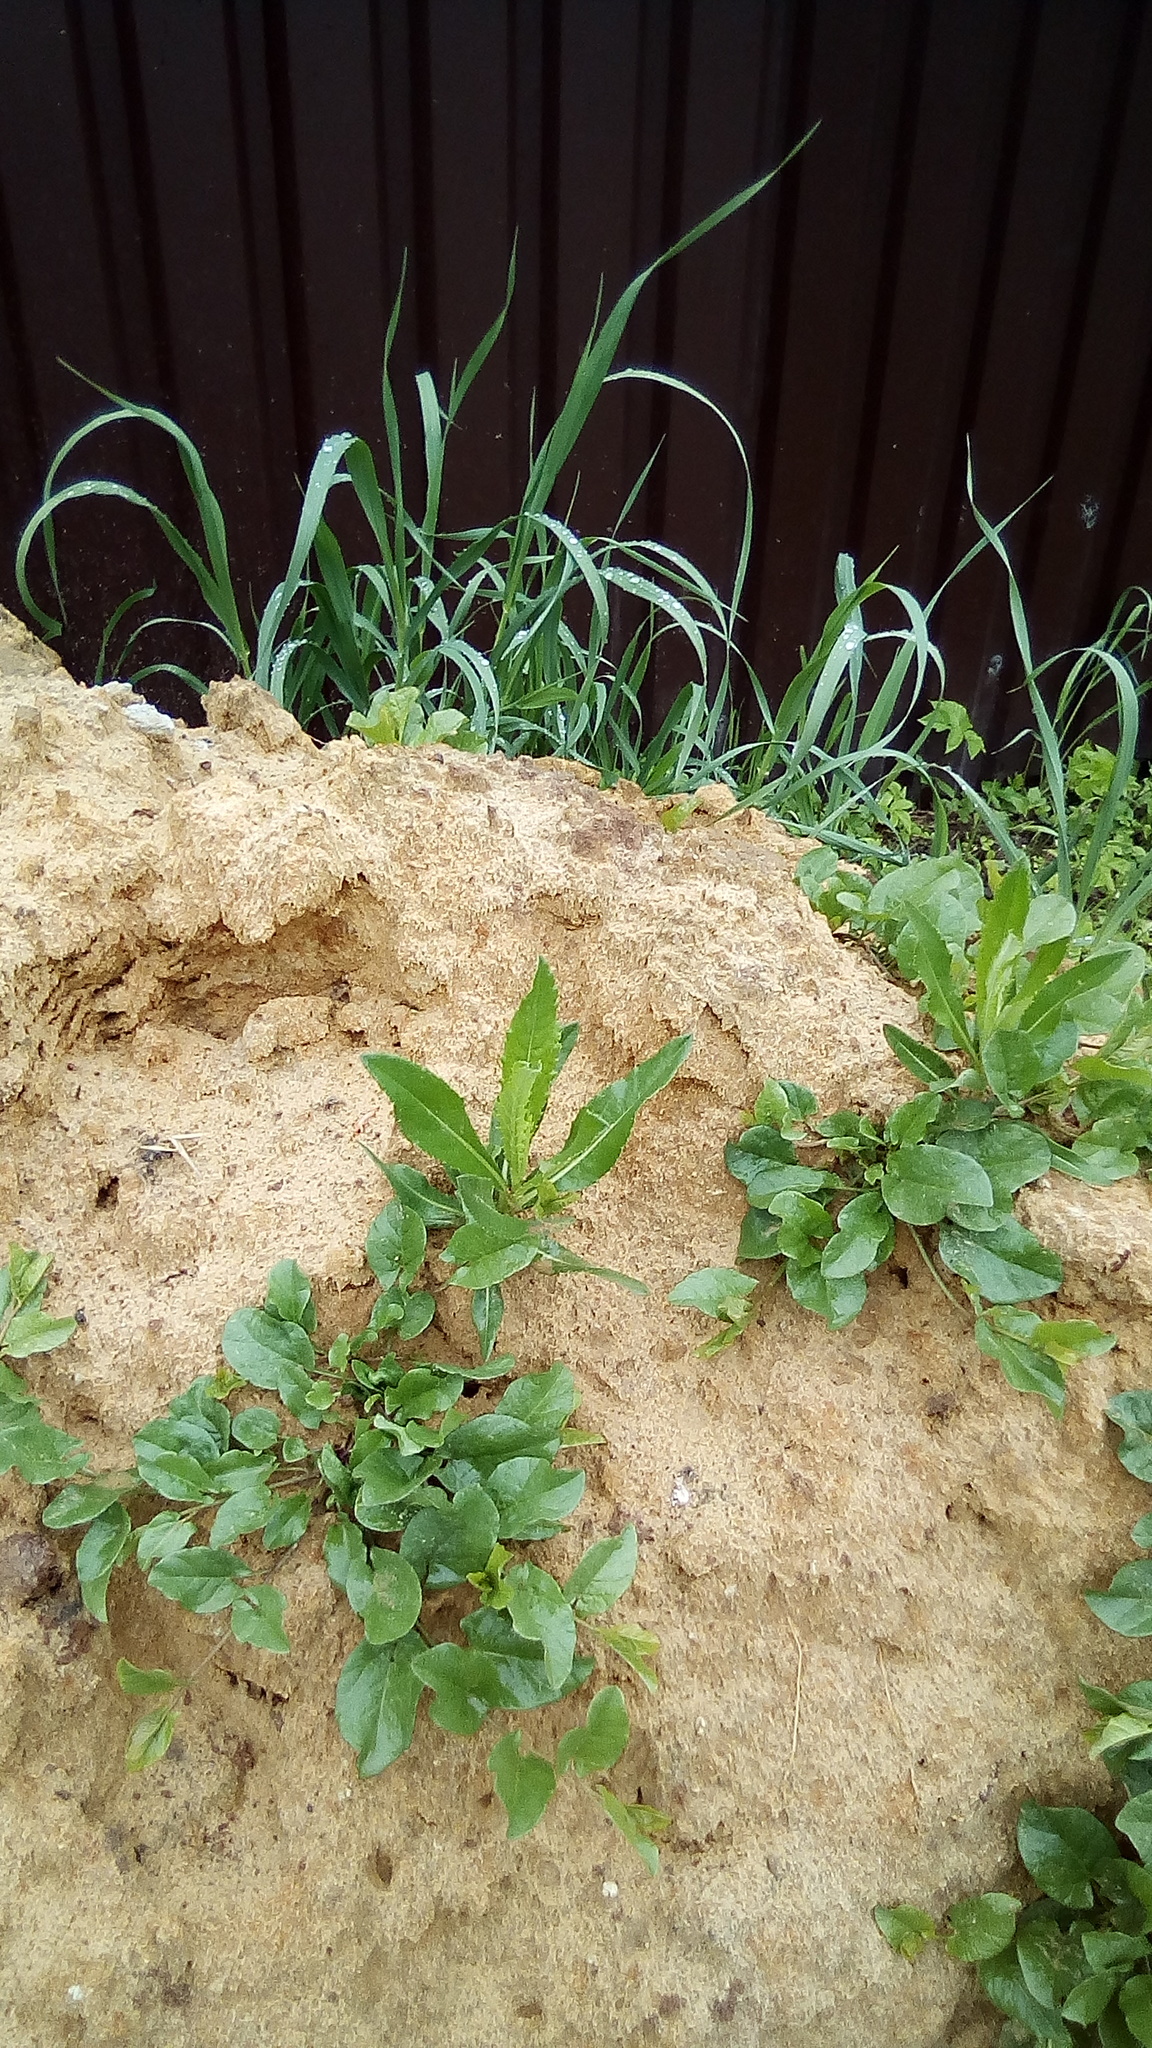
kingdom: Plantae
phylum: Tracheophyta
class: Magnoliopsida
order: Asterales
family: Asteraceae
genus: Cirsium
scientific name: Cirsium arvense
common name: Creeping thistle
